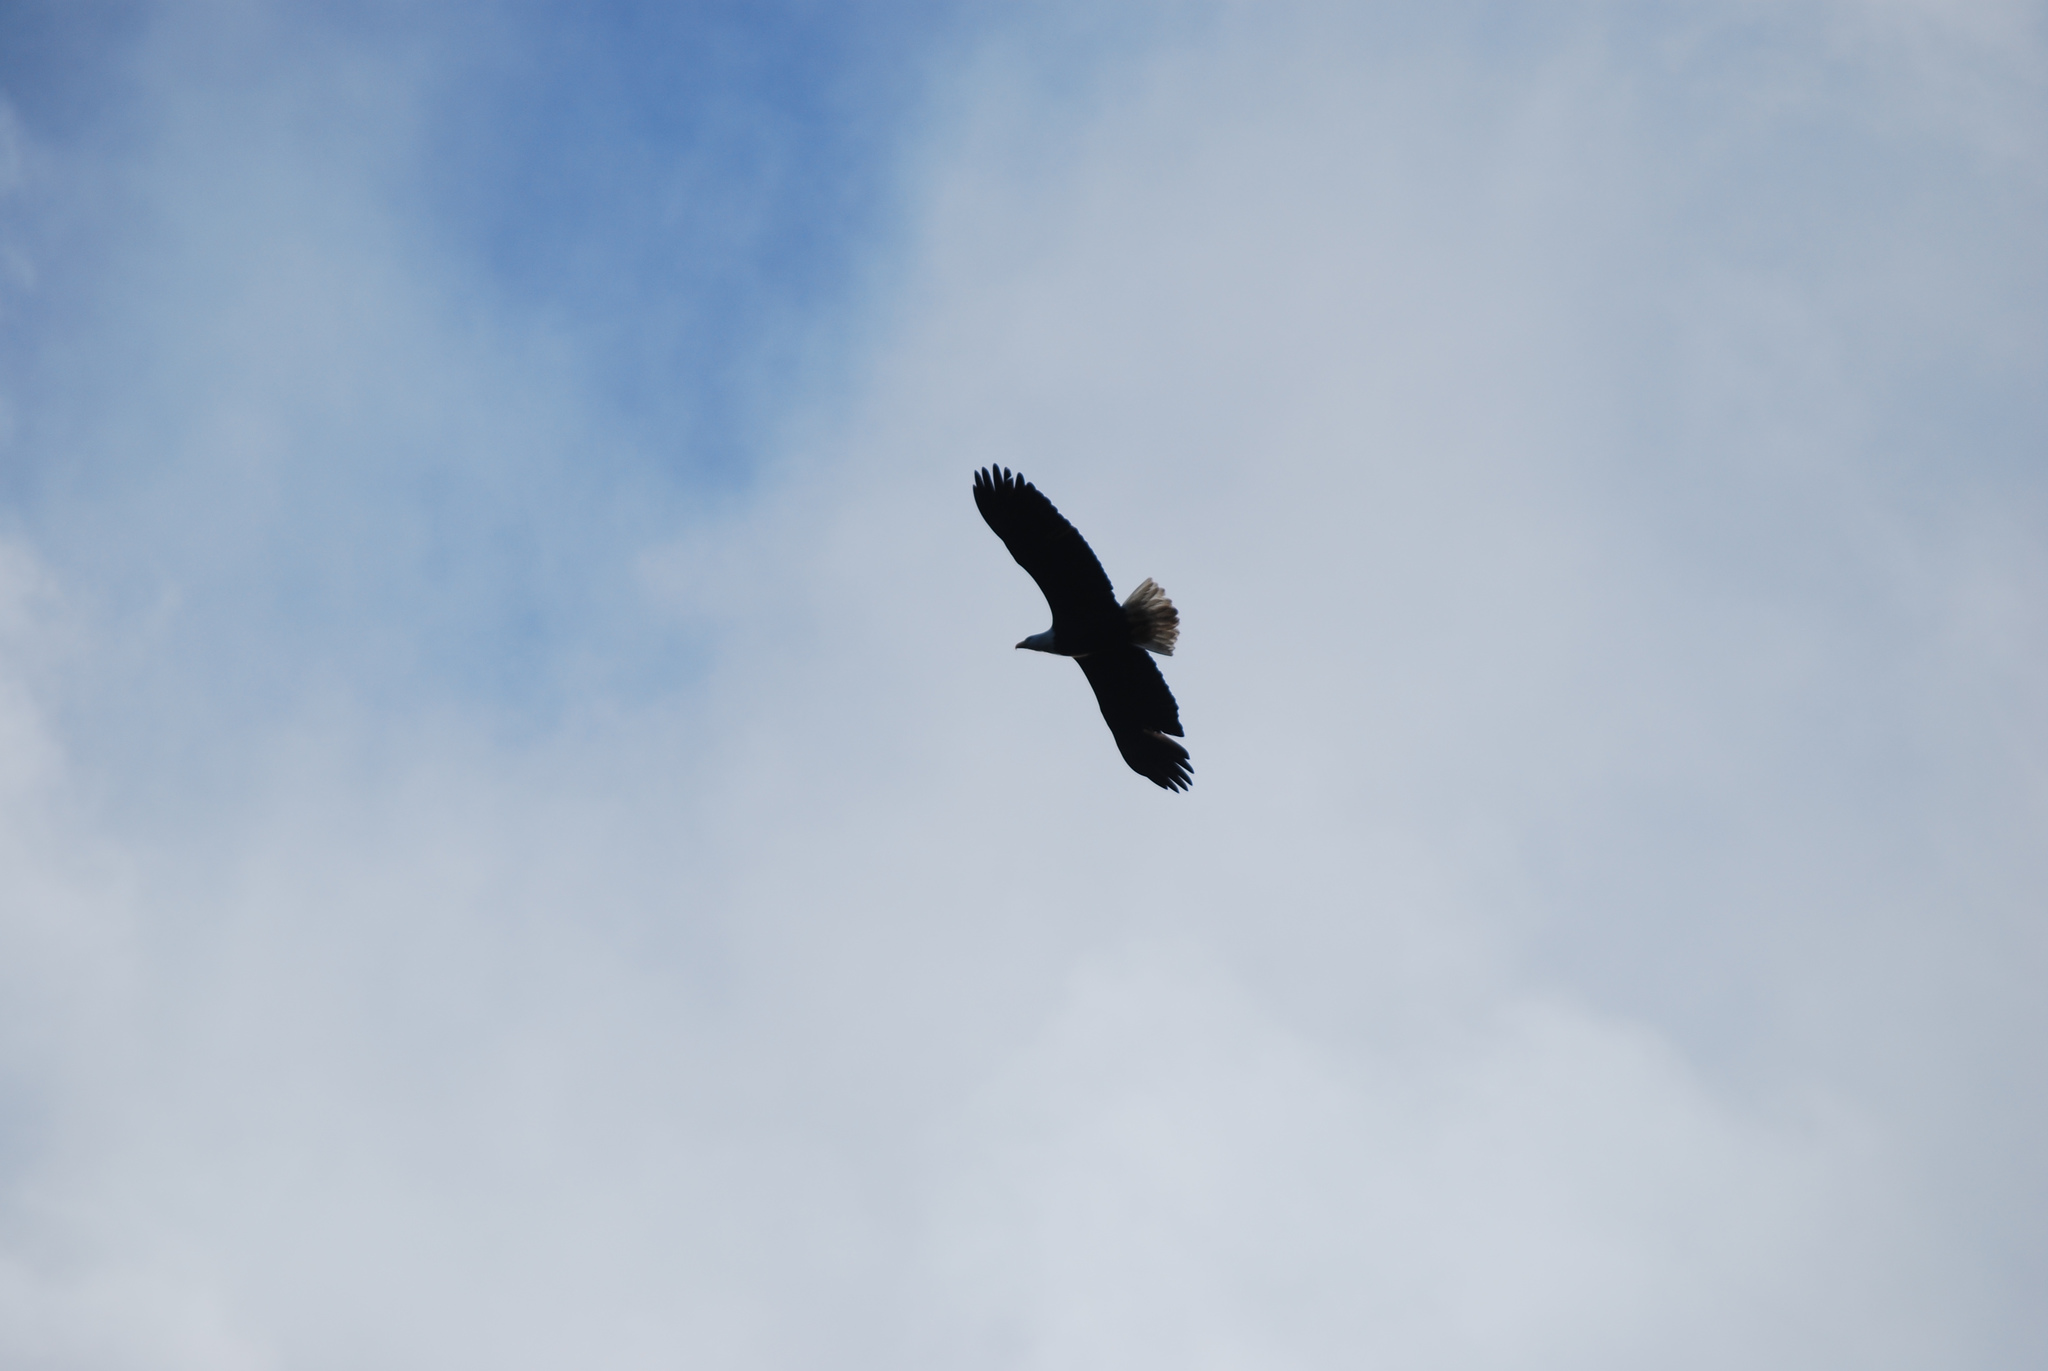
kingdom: Animalia
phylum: Chordata
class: Aves
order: Accipitriformes
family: Accipitridae
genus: Haliaeetus
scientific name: Haliaeetus leucocephalus
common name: Bald eagle
